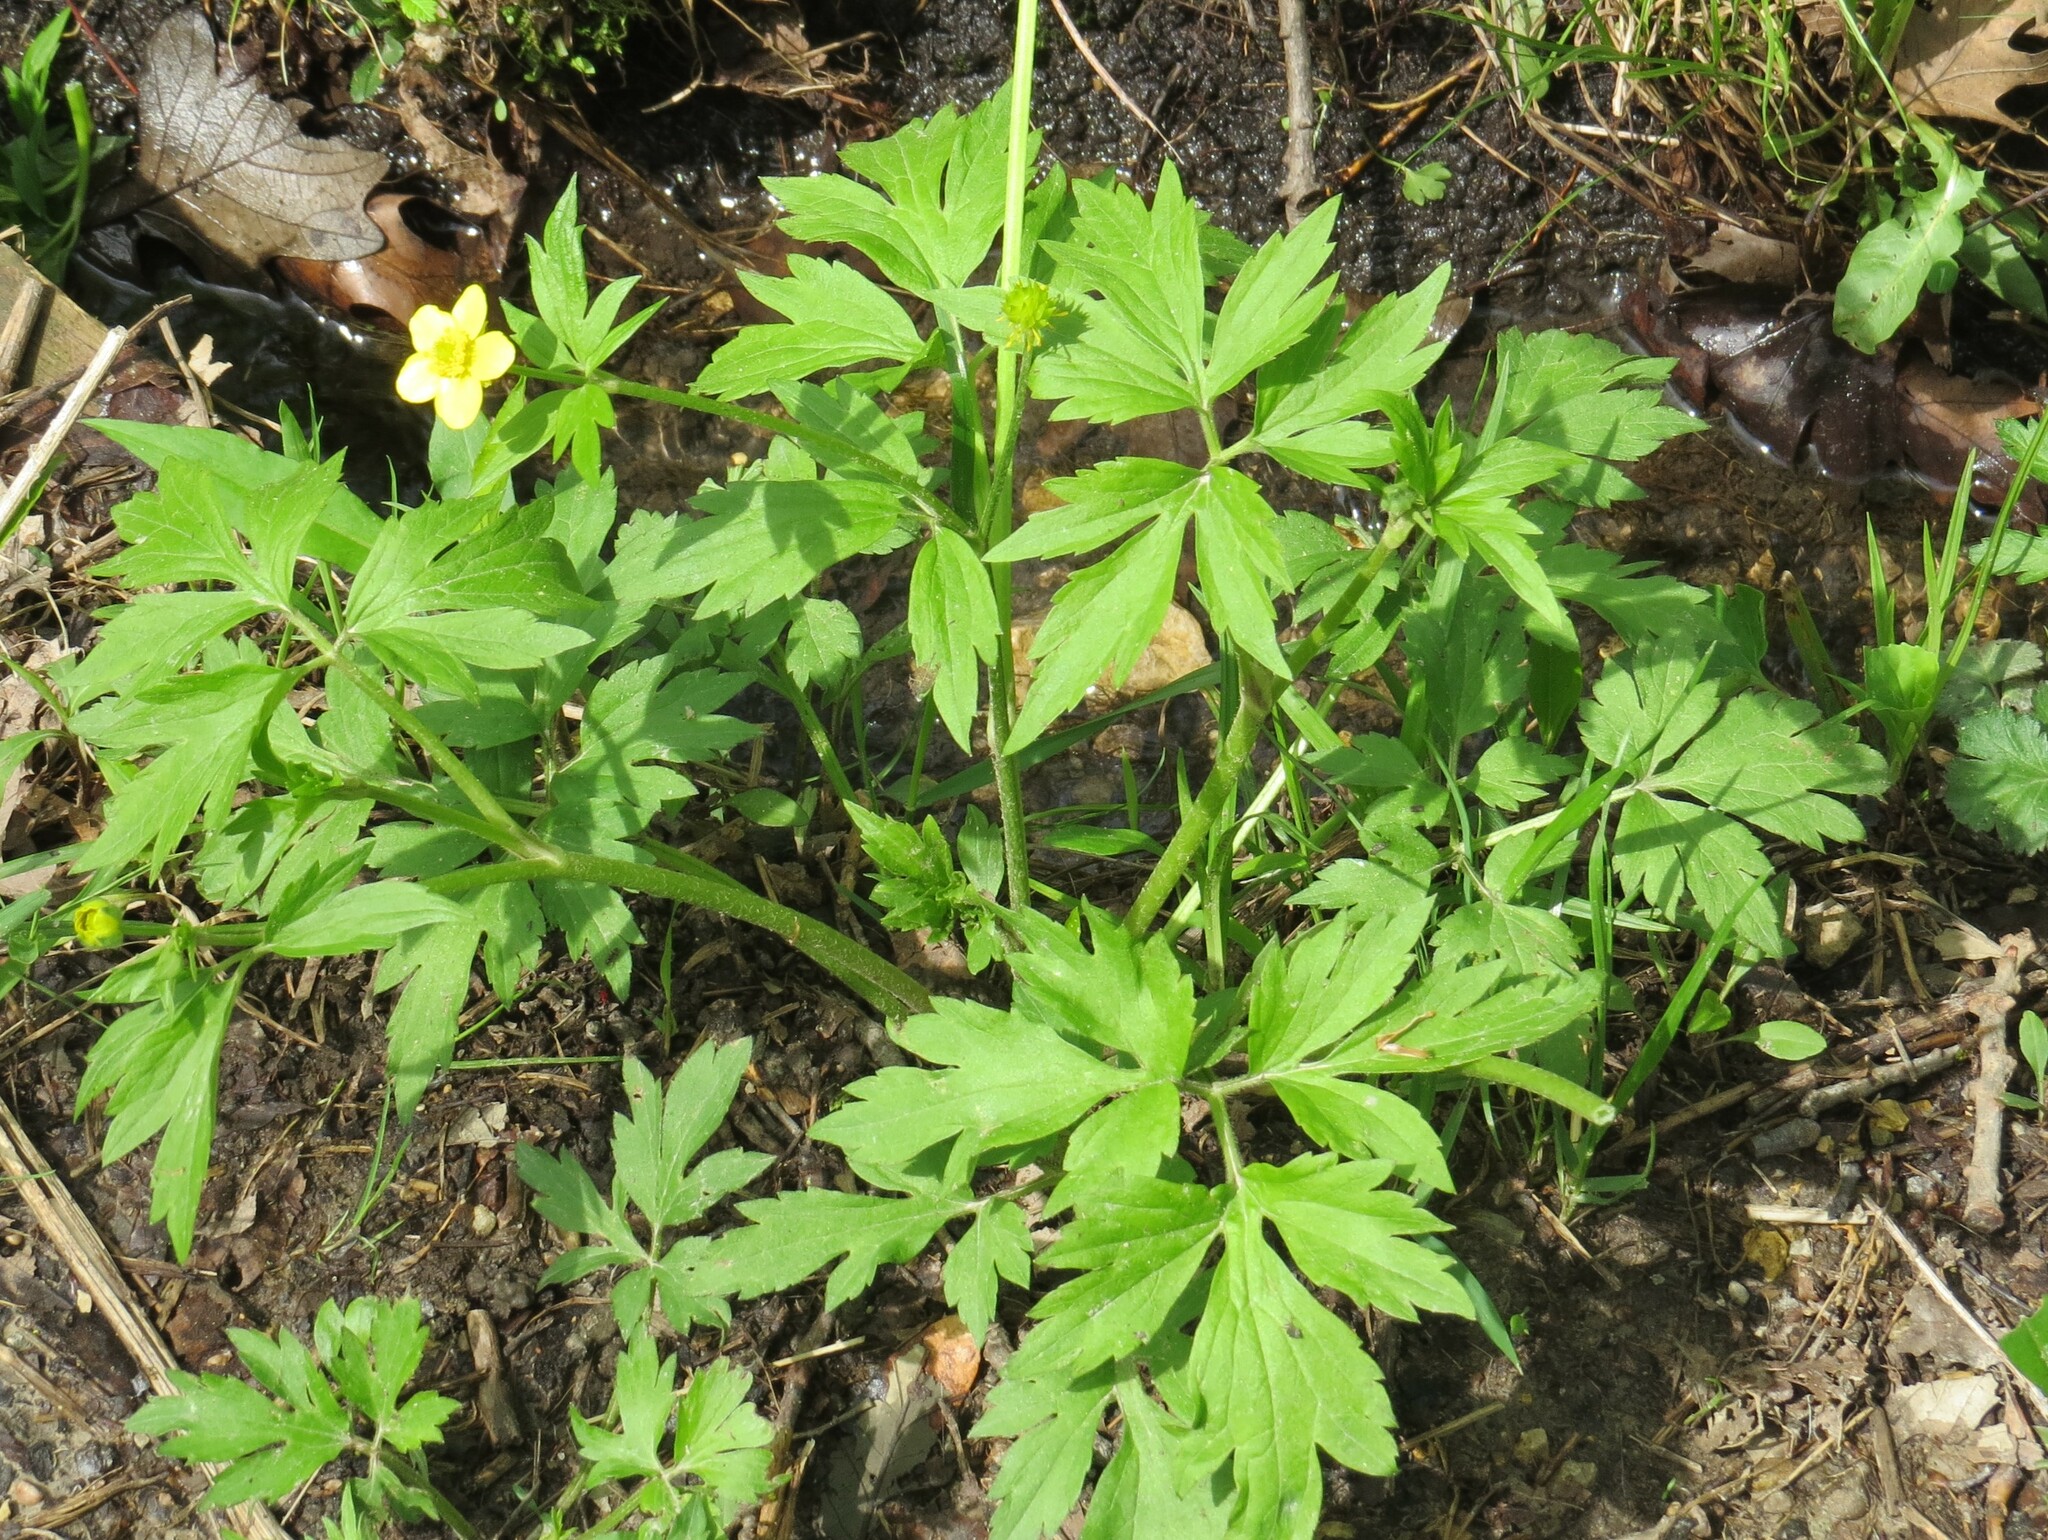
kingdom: Plantae
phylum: Tracheophyta
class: Magnoliopsida
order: Ranunculales
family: Ranunculaceae
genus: Ranunculus
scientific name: Ranunculus hispidus
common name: Bristly buttercup
